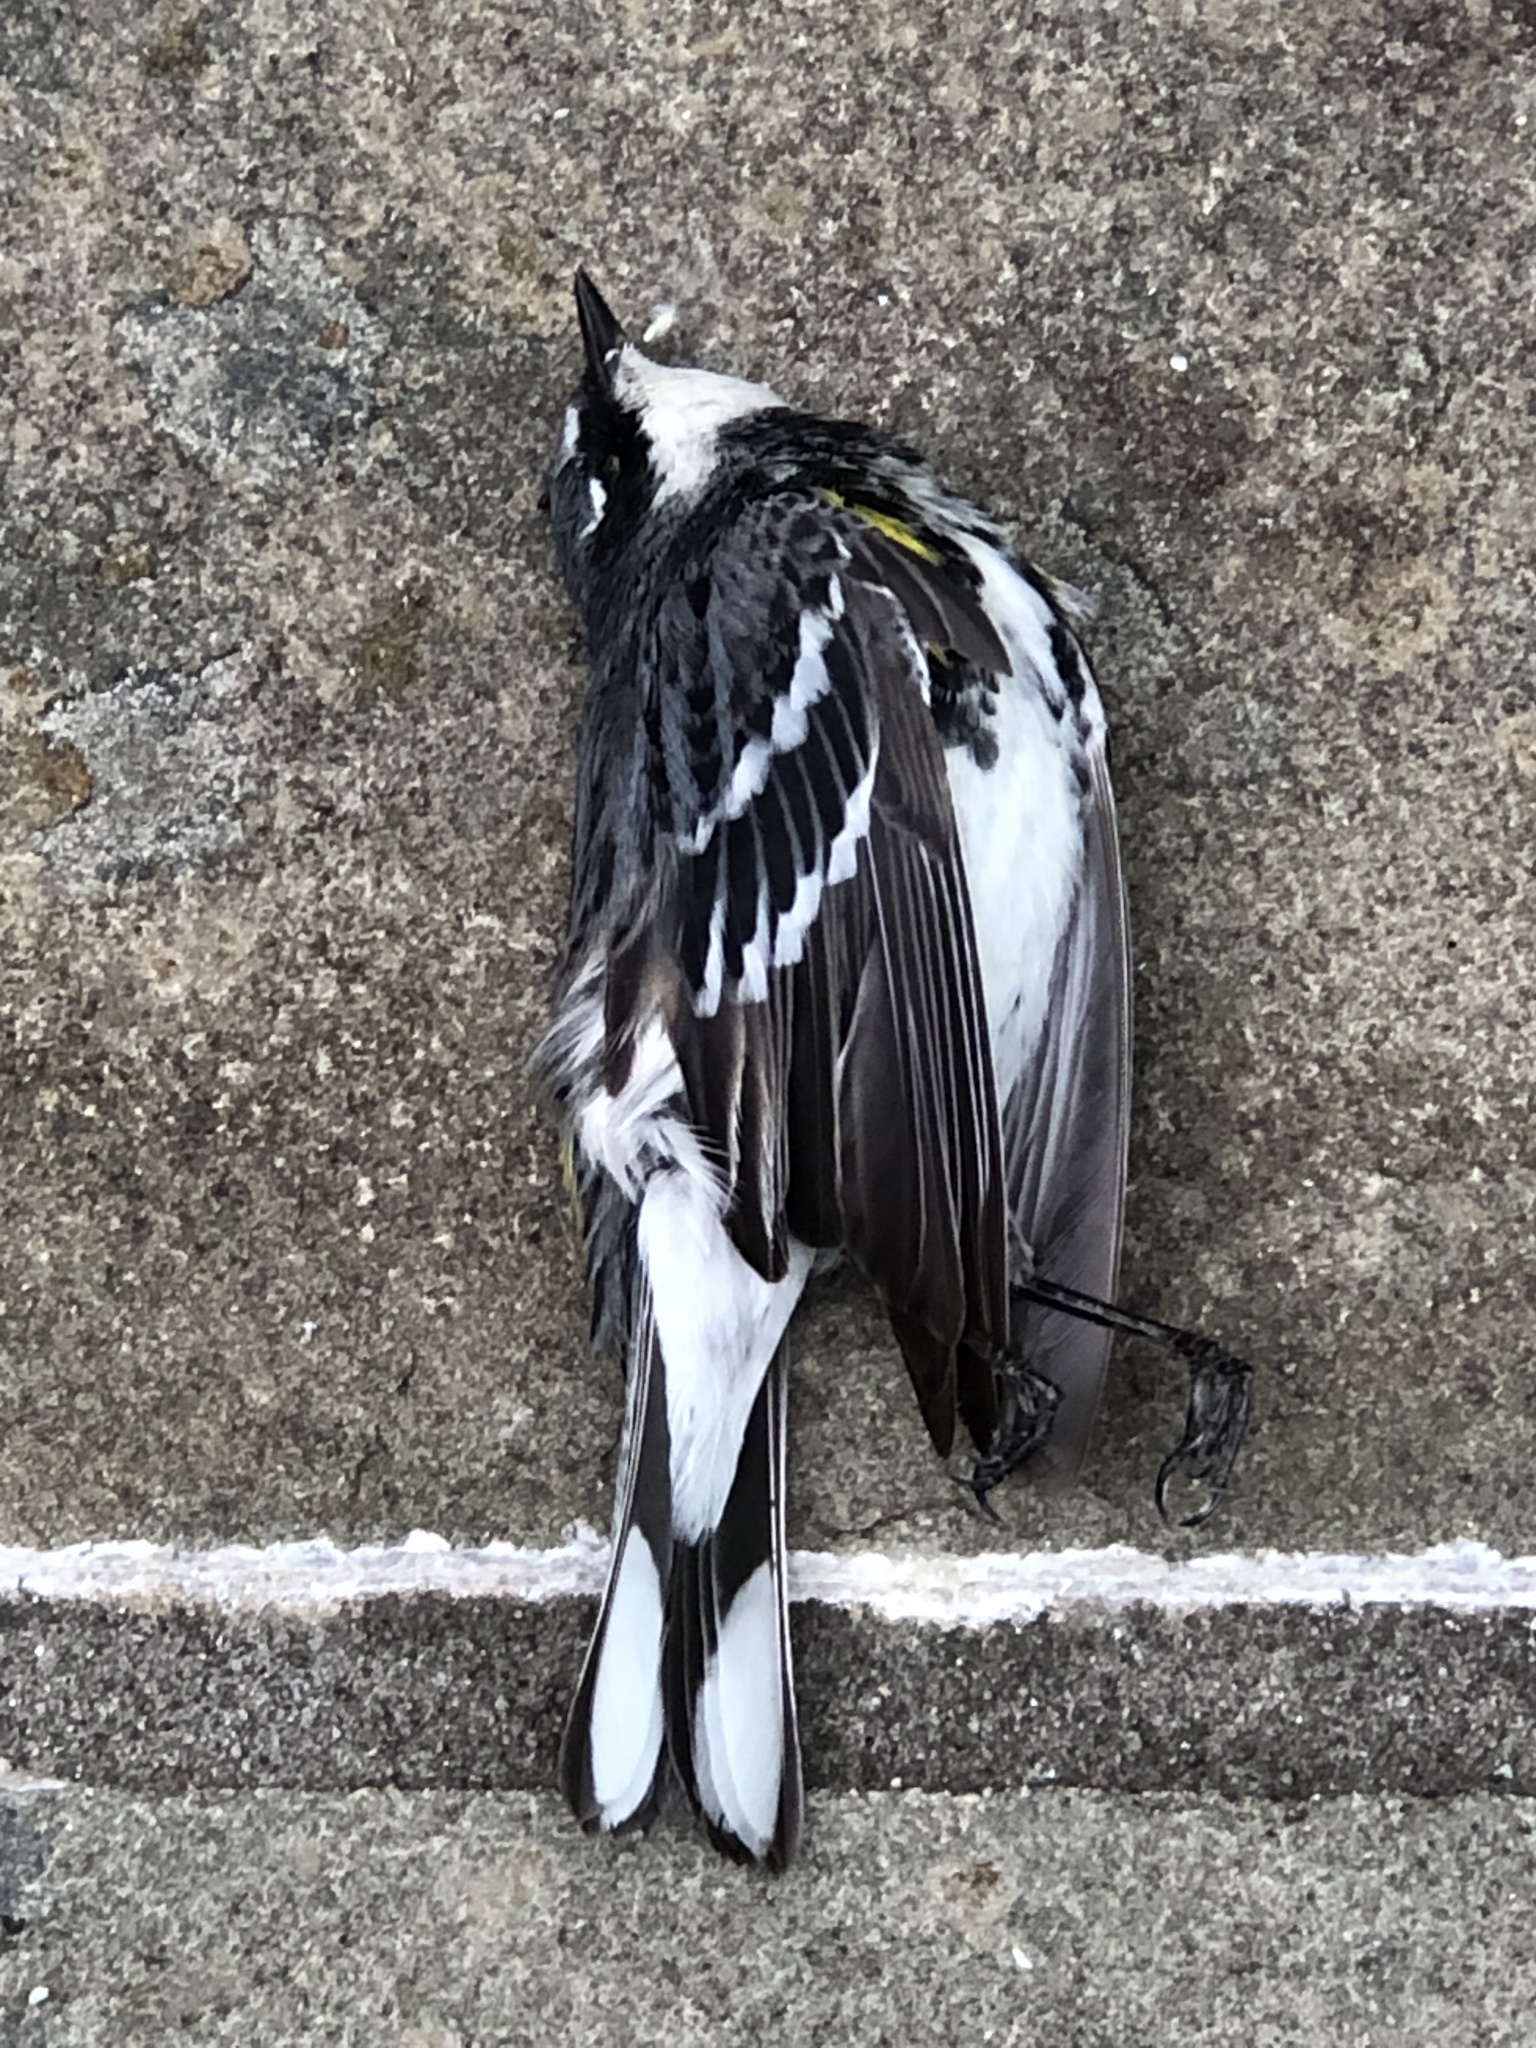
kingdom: Animalia
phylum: Chordata
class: Aves
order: Passeriformes
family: Parulidae
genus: Setophaga
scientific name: Setophaga coronata
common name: Myrtle warbler
